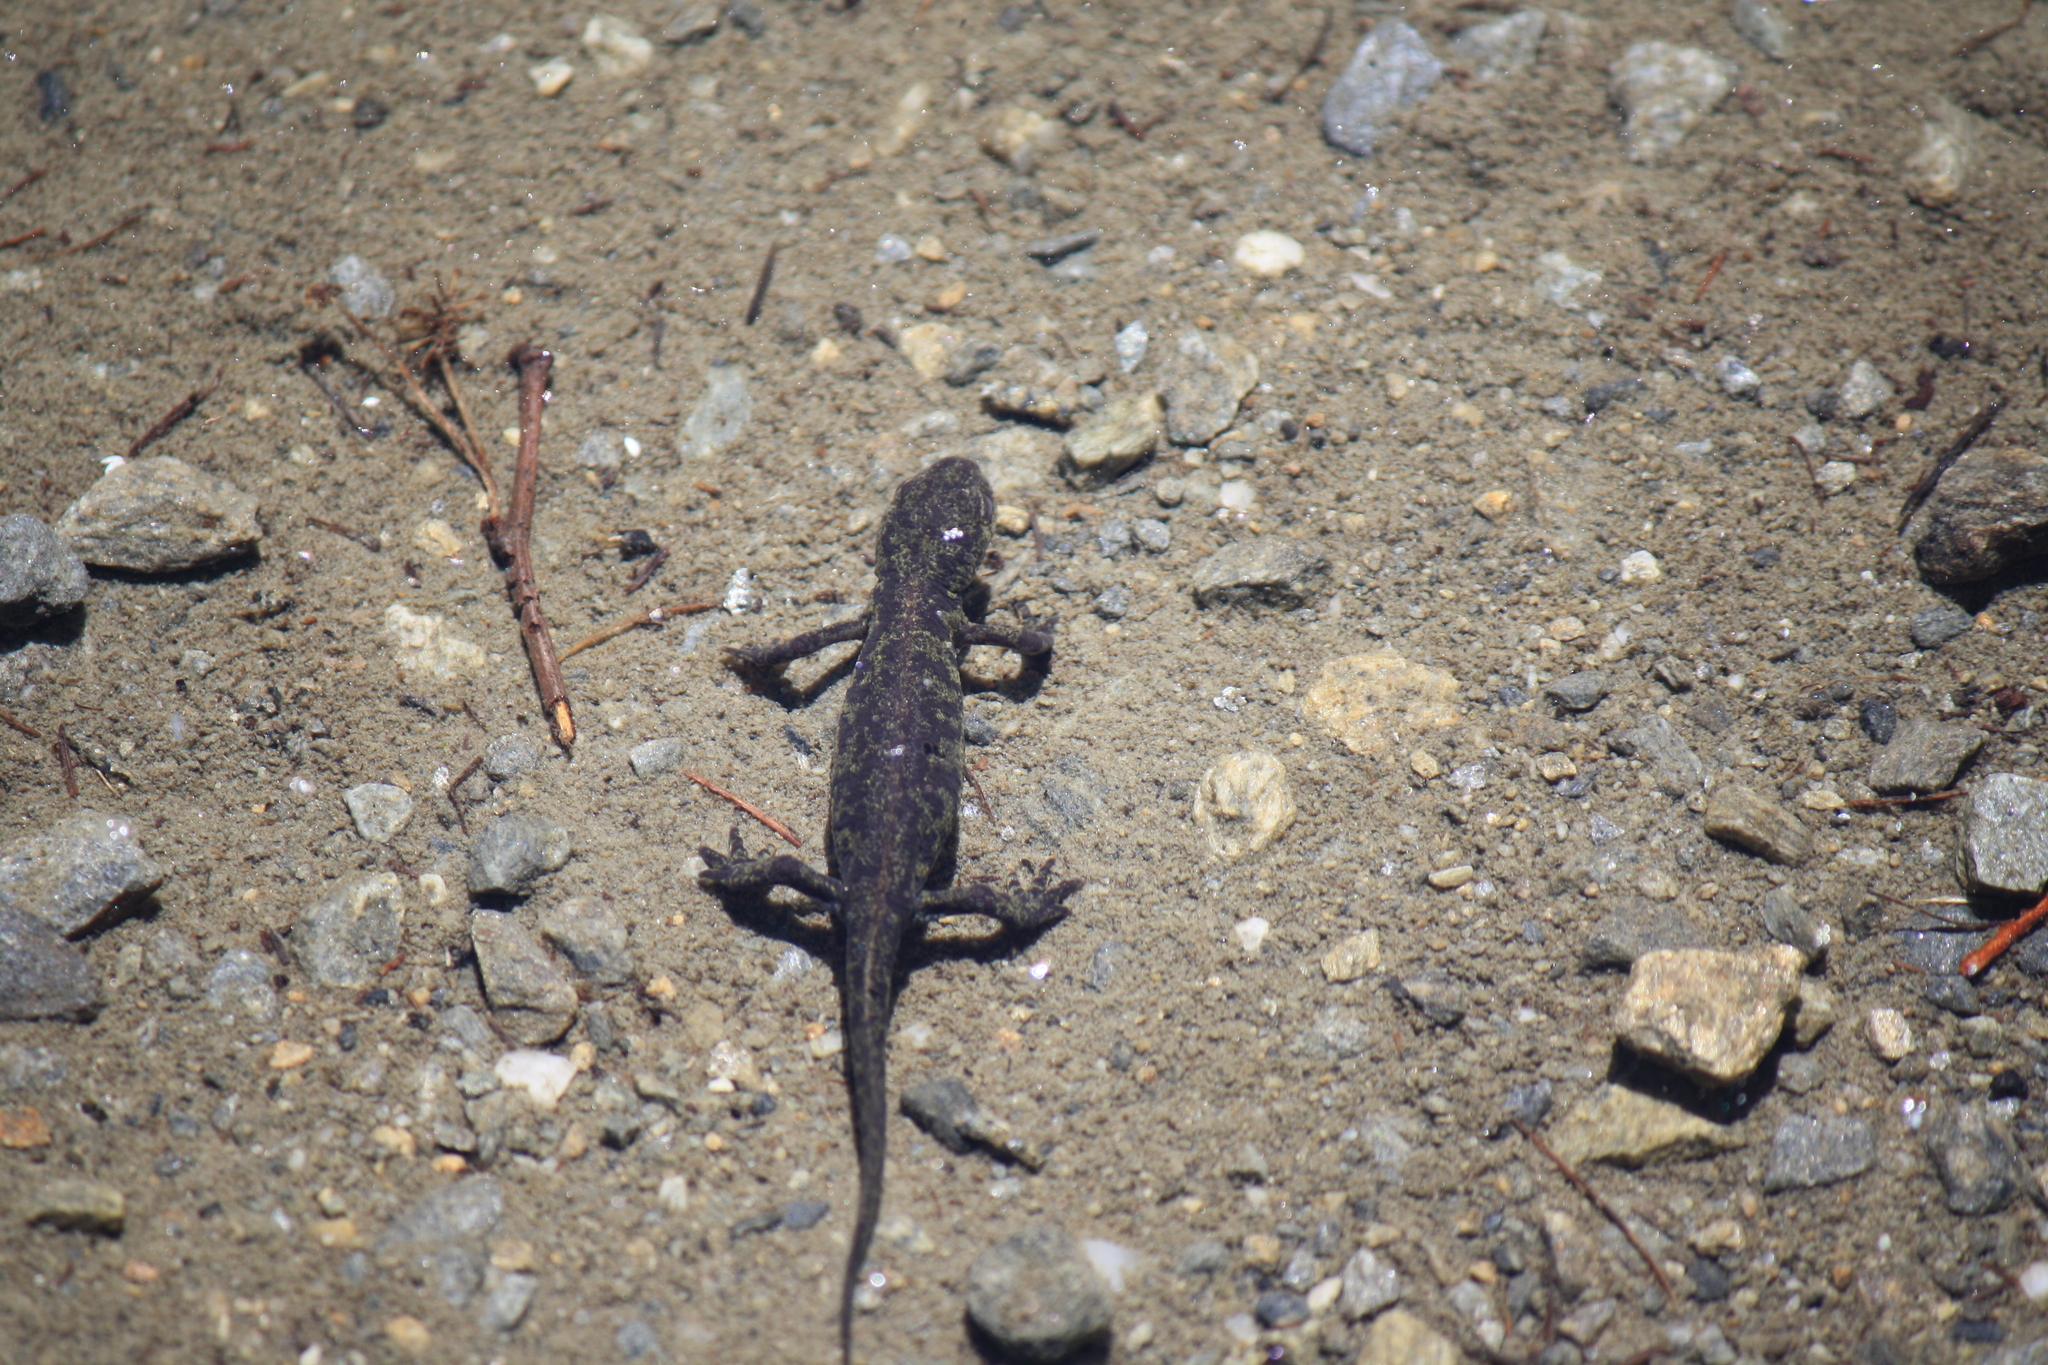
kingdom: Animalia
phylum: Chordata
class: Amphibia
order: Caudata
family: Salamandridae
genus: Ichthyosaura
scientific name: Ichthyosaura alpestris
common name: Alpine newt
